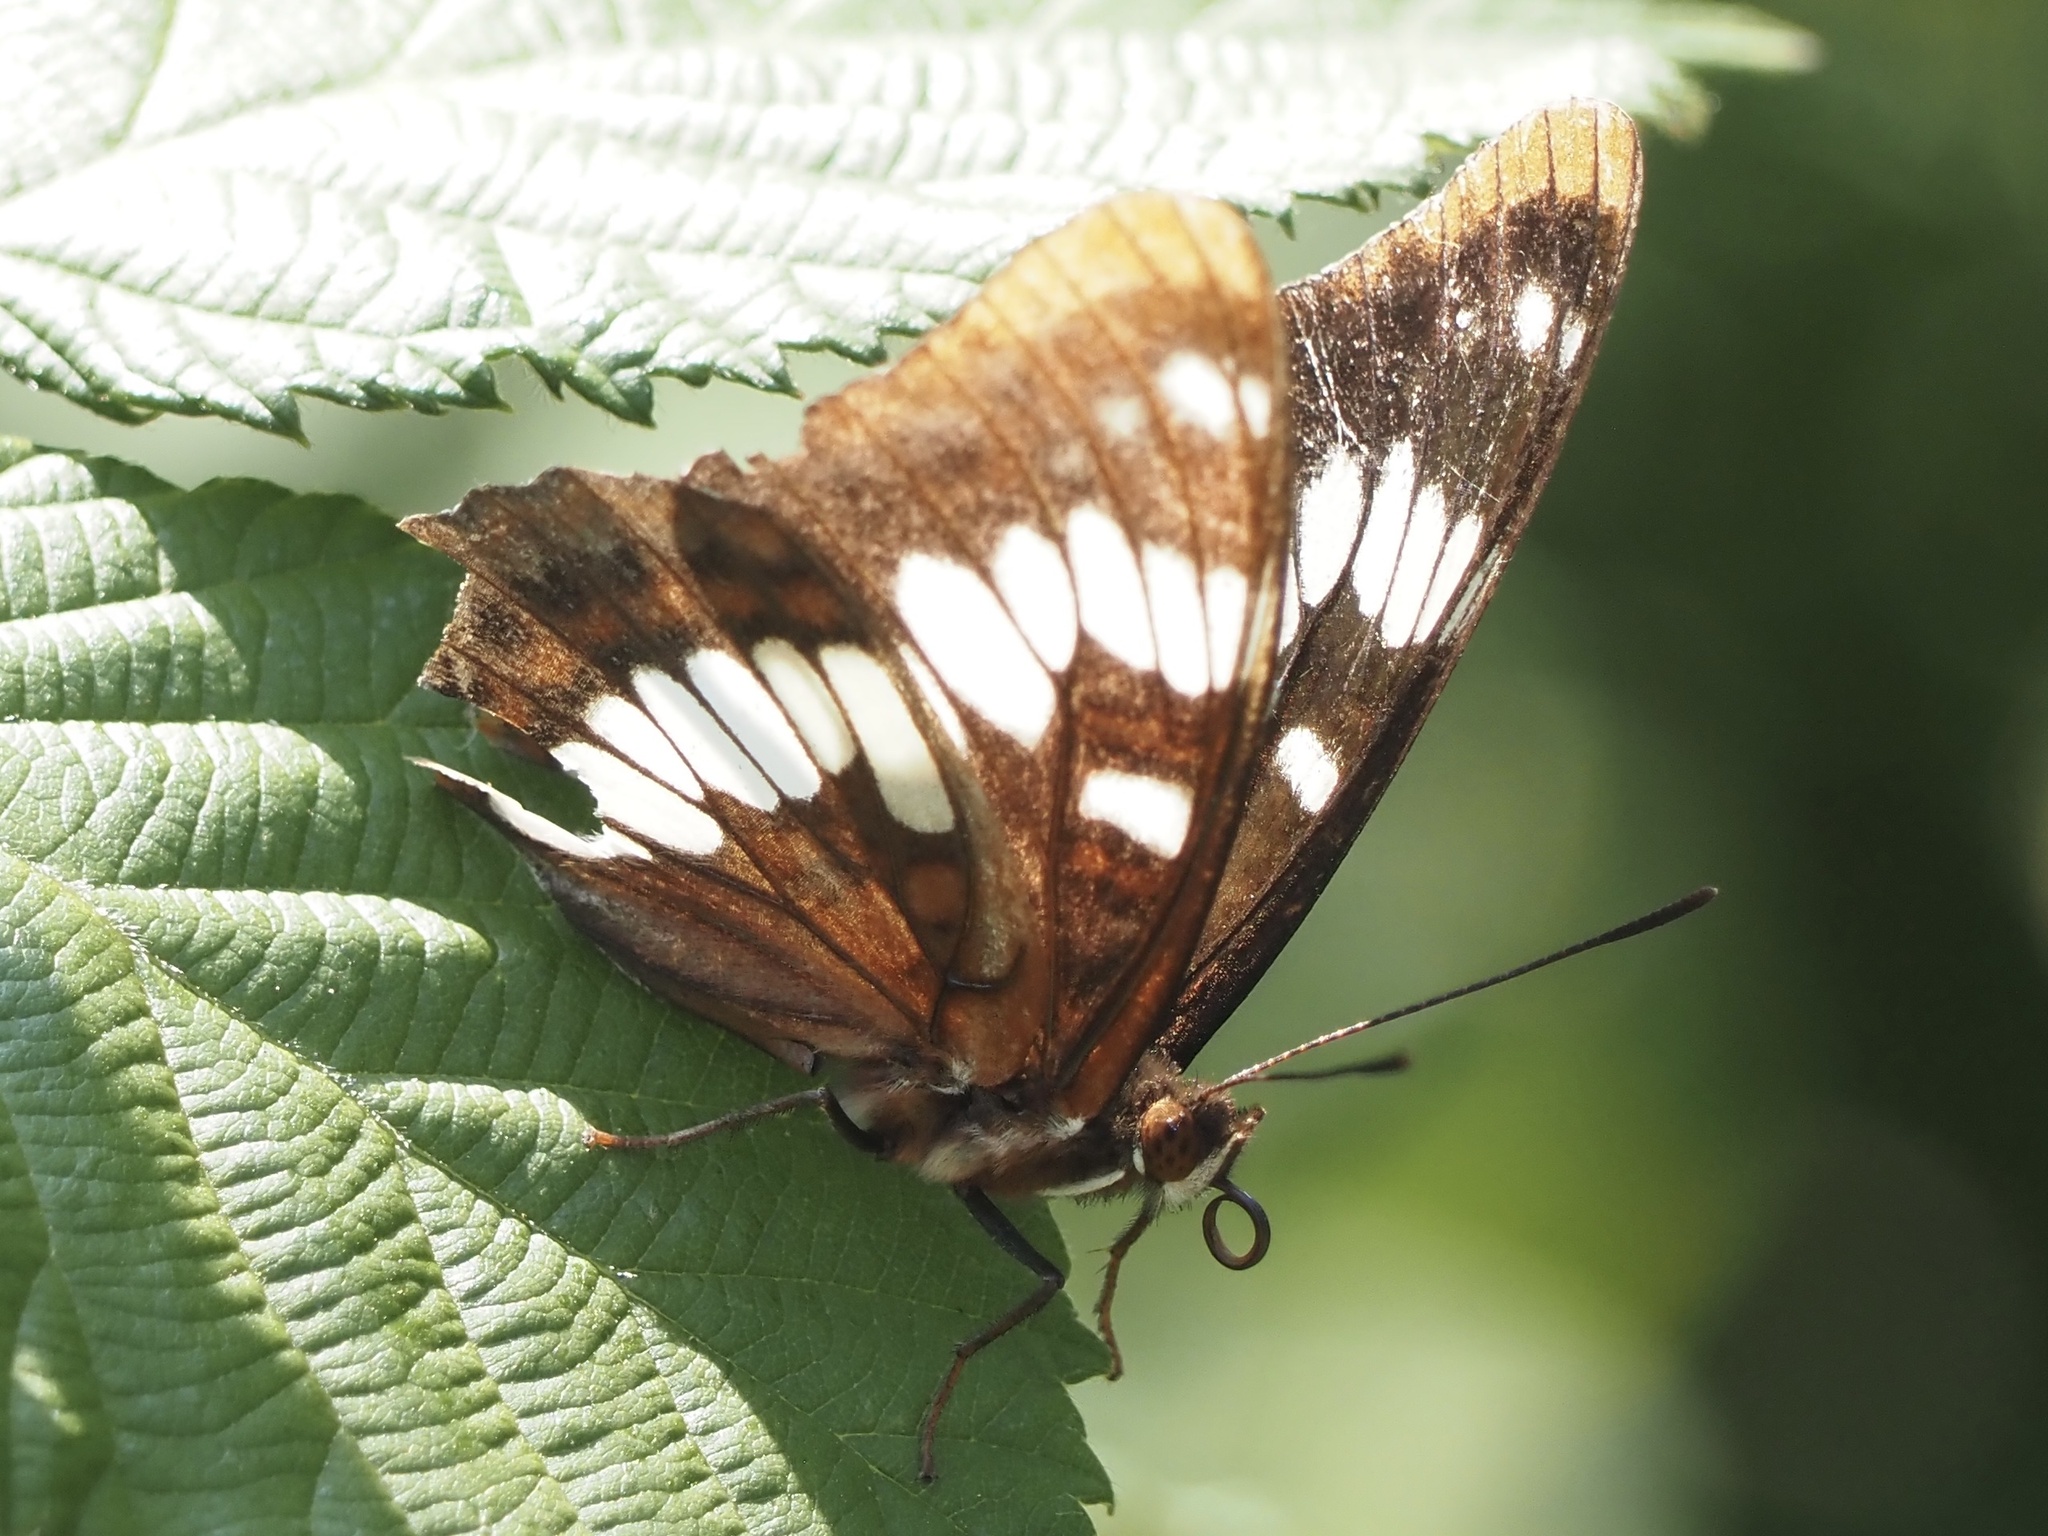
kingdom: Animalia
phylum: Arthropoda
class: Insecta
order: Lepidoptera
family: Nymphalidae
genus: Limenitis
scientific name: Limenitis lorquini
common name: Lorquin's admiral
